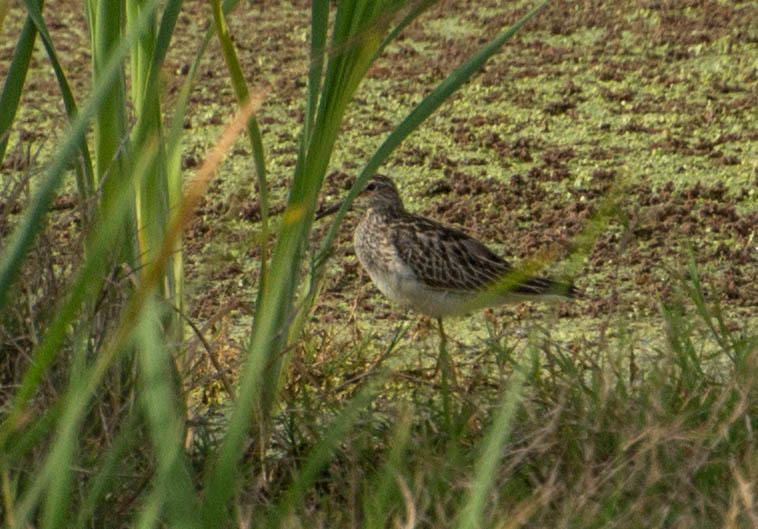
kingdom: Animalia
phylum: Chordata
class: Aves
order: Charadriiformes
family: Scolopacidae
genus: Calidris
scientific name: Calidris melanotos
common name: Pectoral sandpiper
